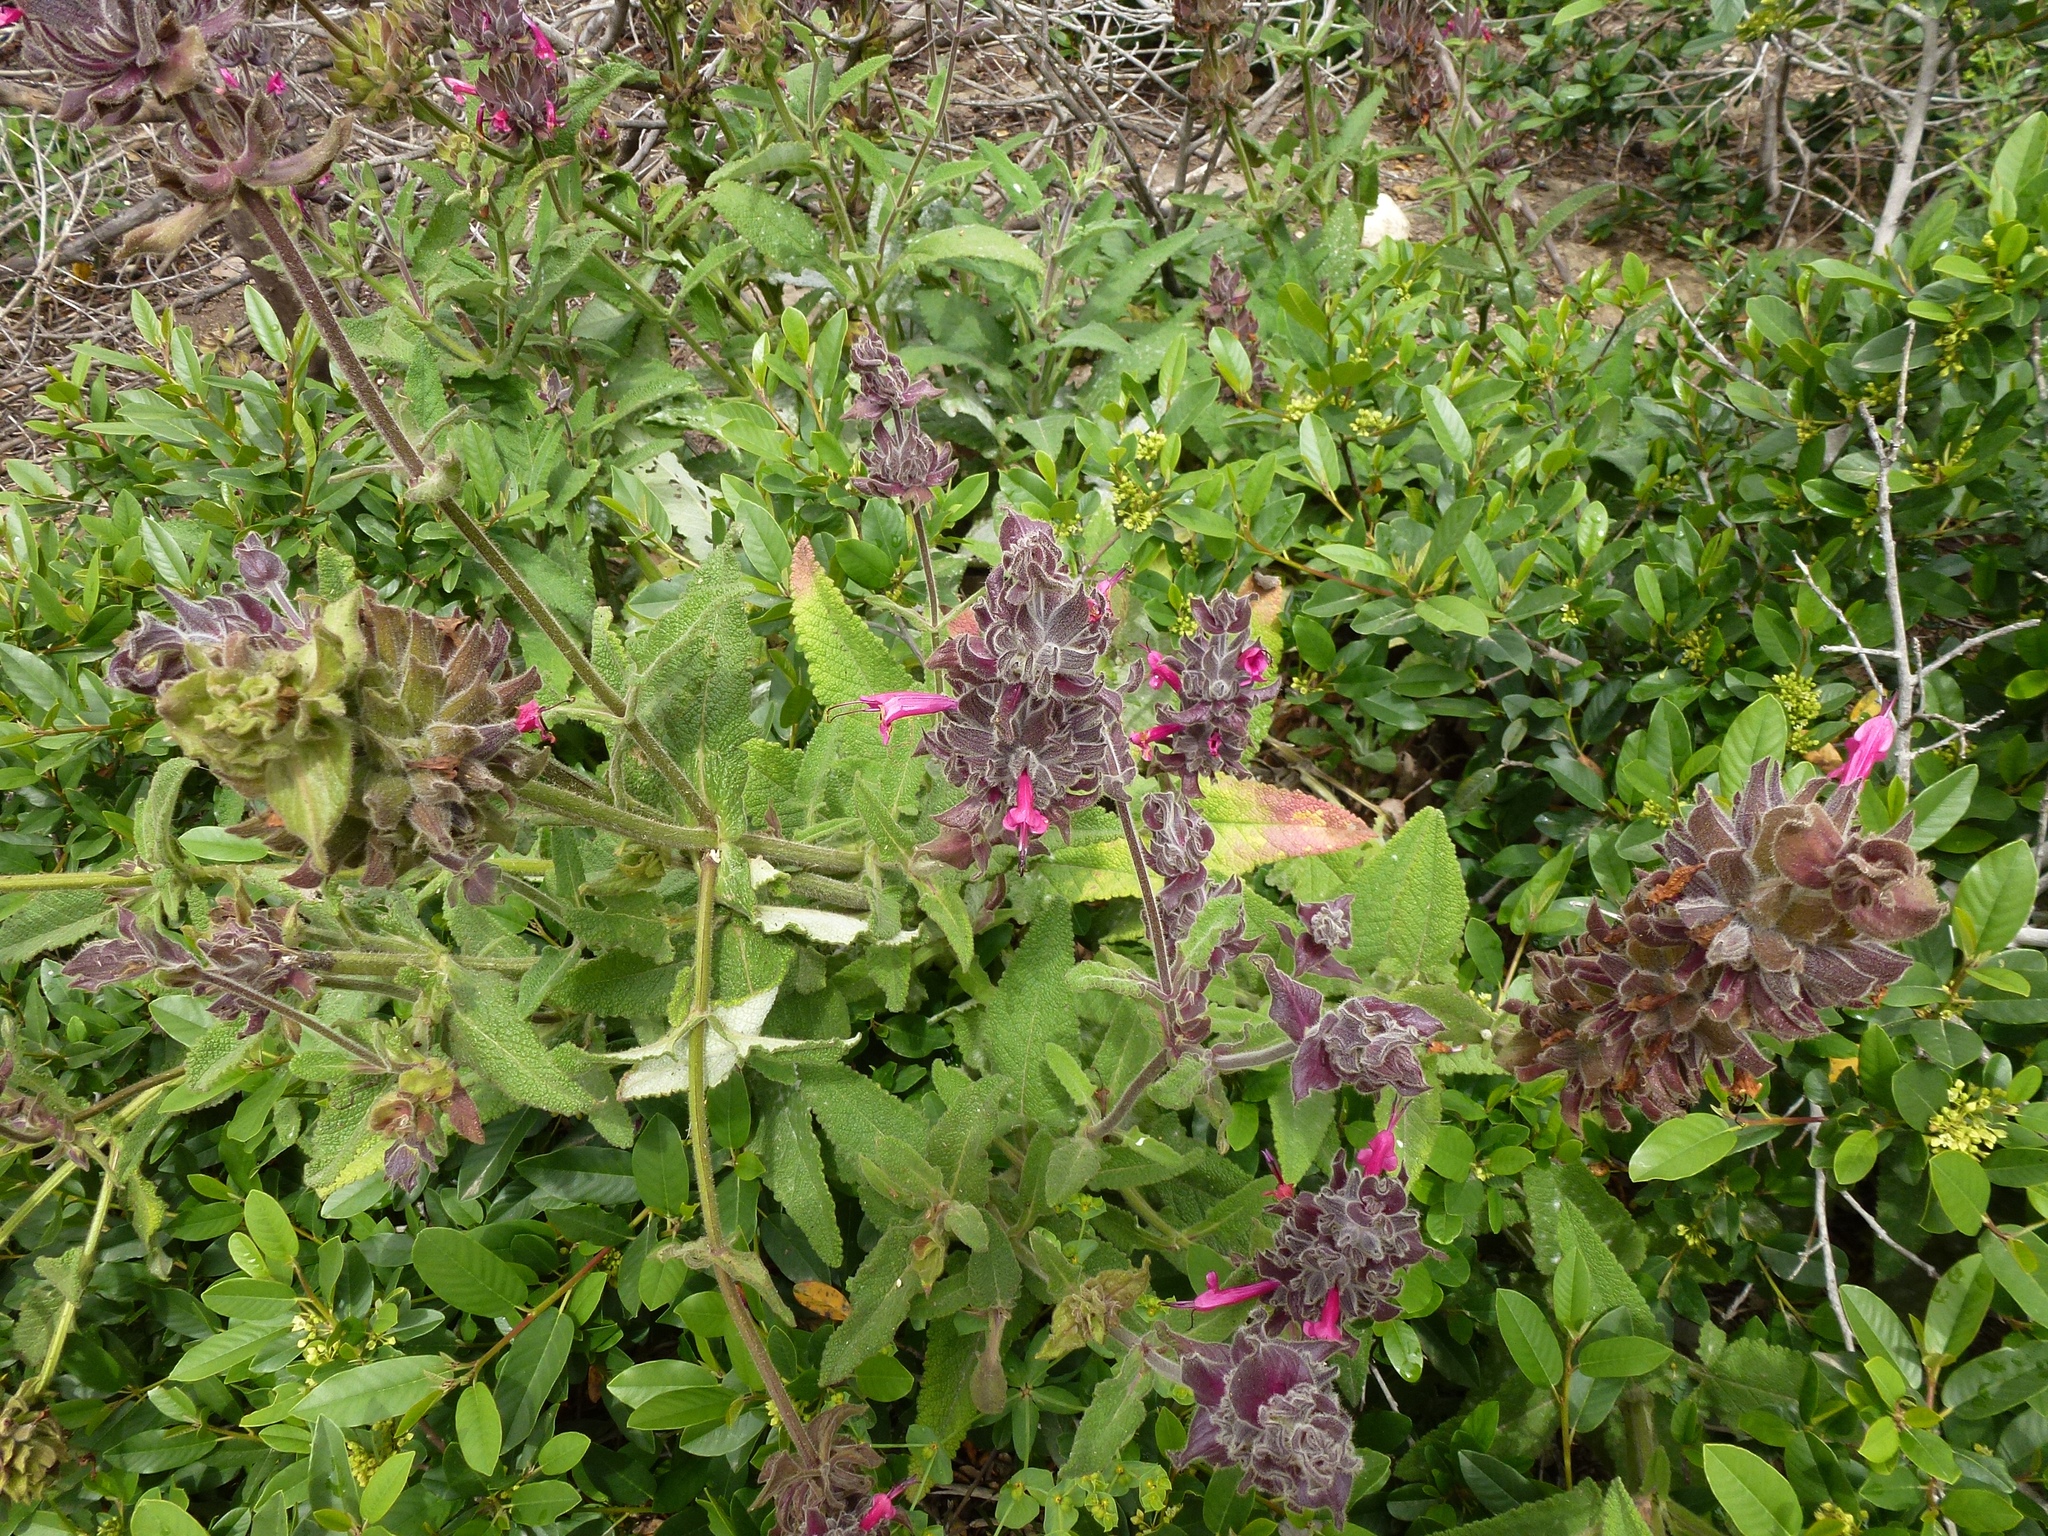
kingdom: Plantae
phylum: Tracheophyta
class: Magnoliopsida
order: Lamiales
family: Lamiaceae
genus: Salvia
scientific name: Salvia spathacea
